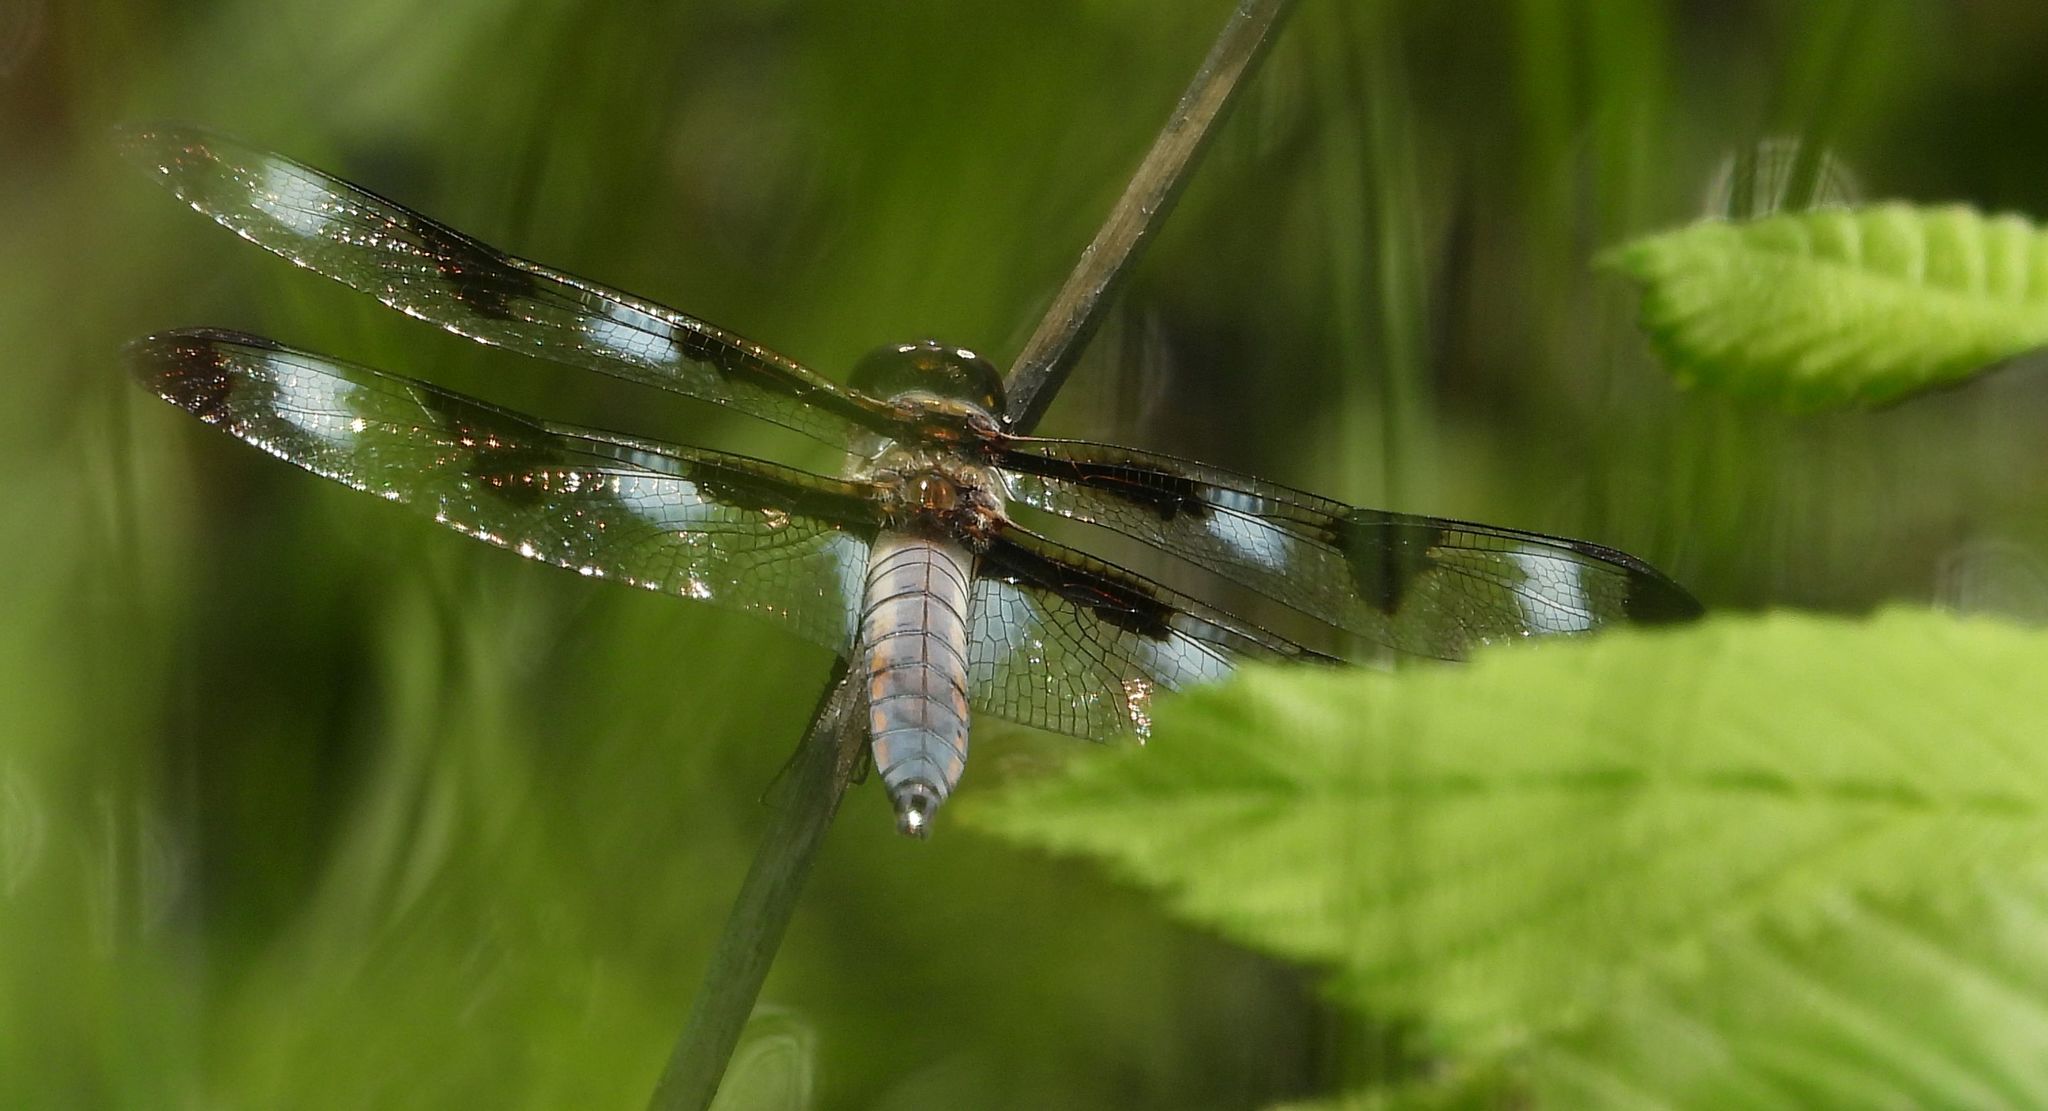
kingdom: Animalia
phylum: Arthropoda
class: Insecta
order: Odonata
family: Libellulidae
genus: Libellula
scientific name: Libellula pulchella
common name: Twelve-spotted skimmer
